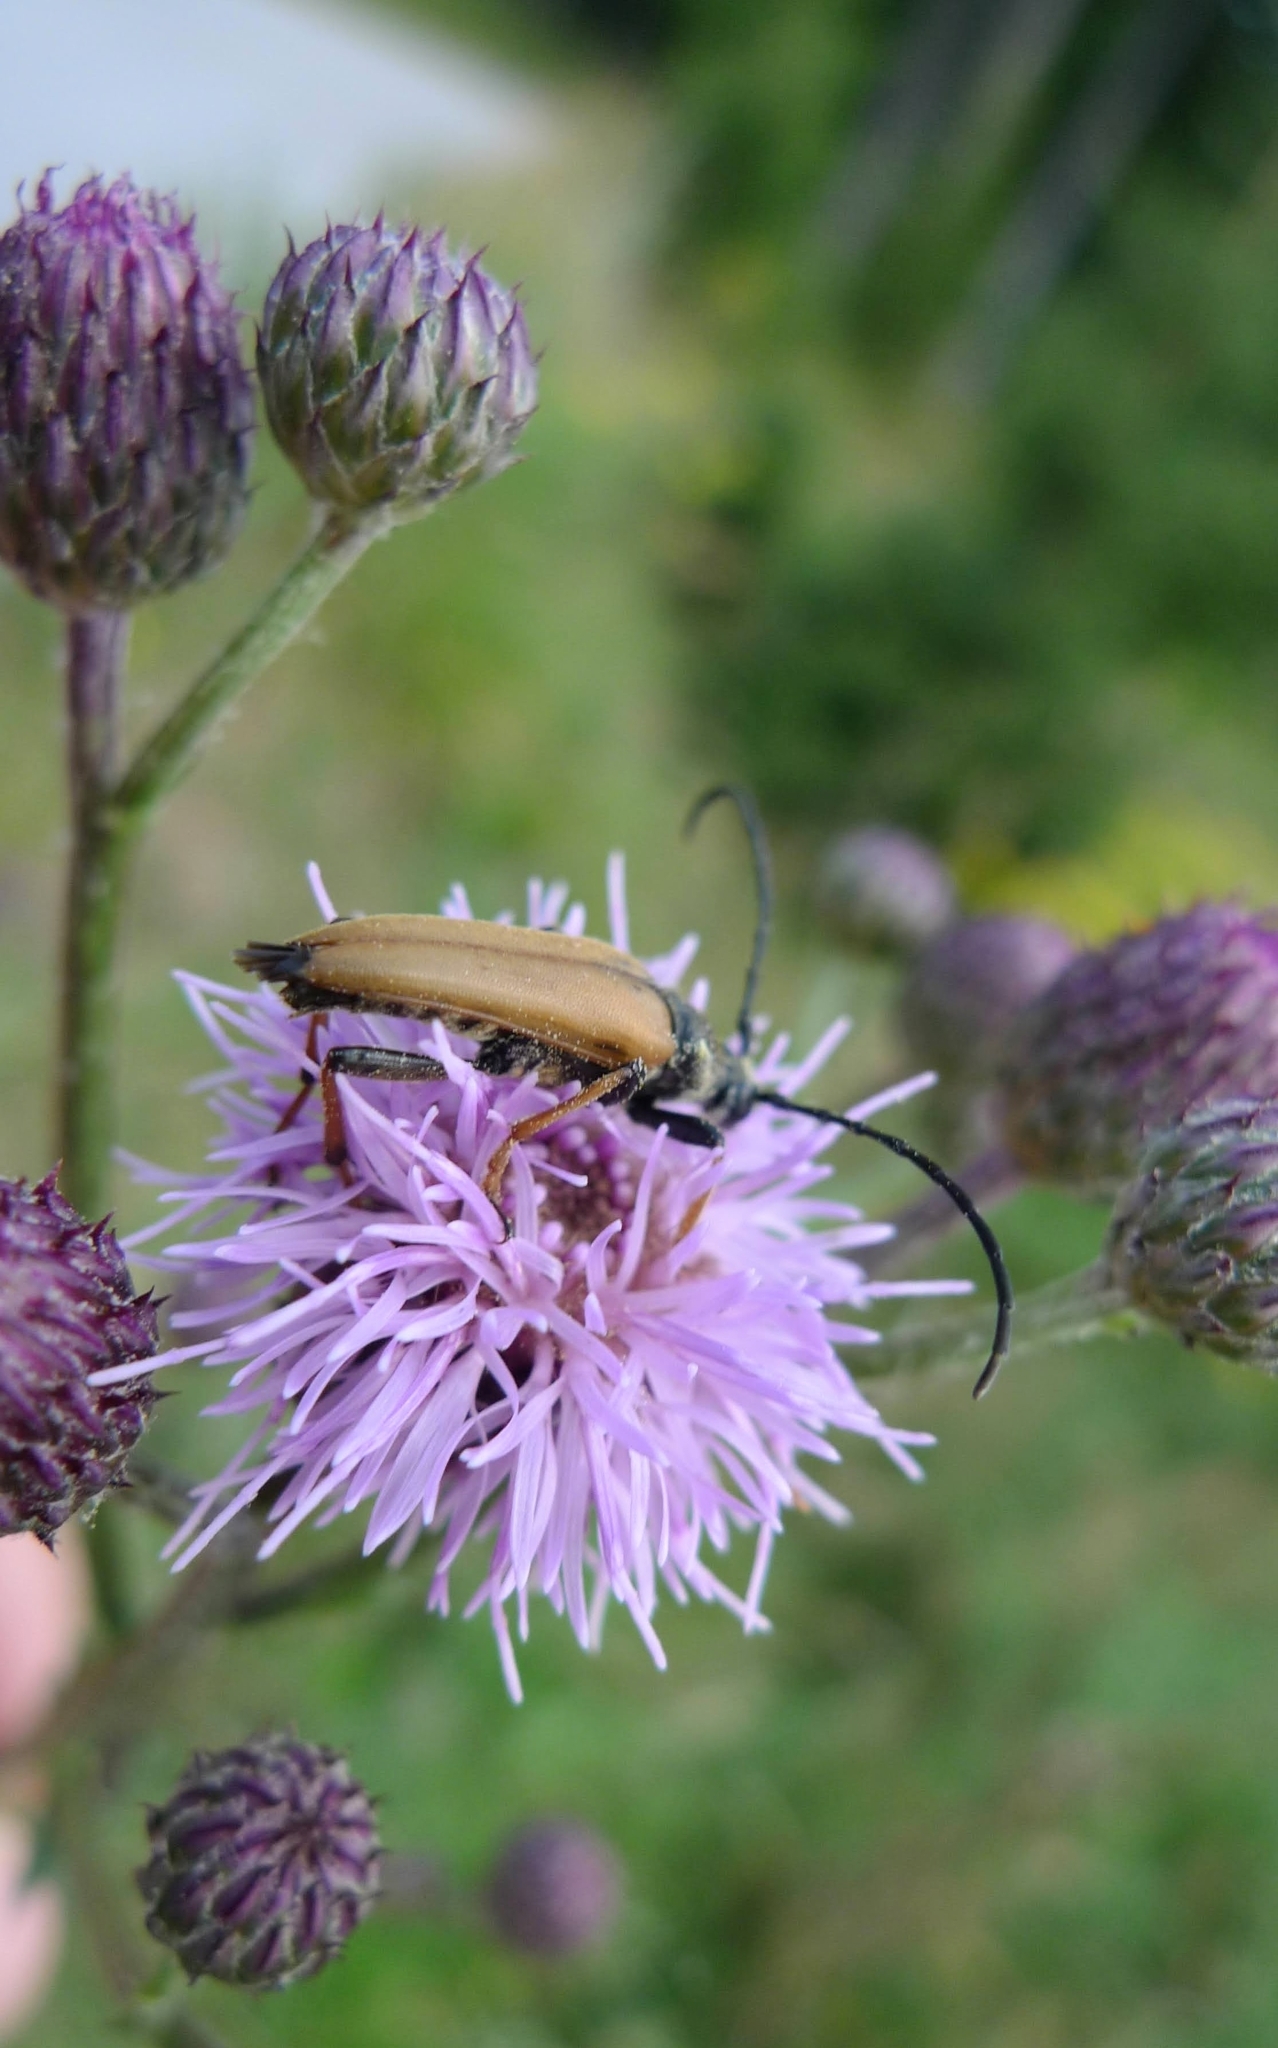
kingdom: Animalia
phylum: Arthropoda
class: Insecta
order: Coleoptera
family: Cerambycidae
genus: Stictoleptura
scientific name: Stictoleptura rubra
